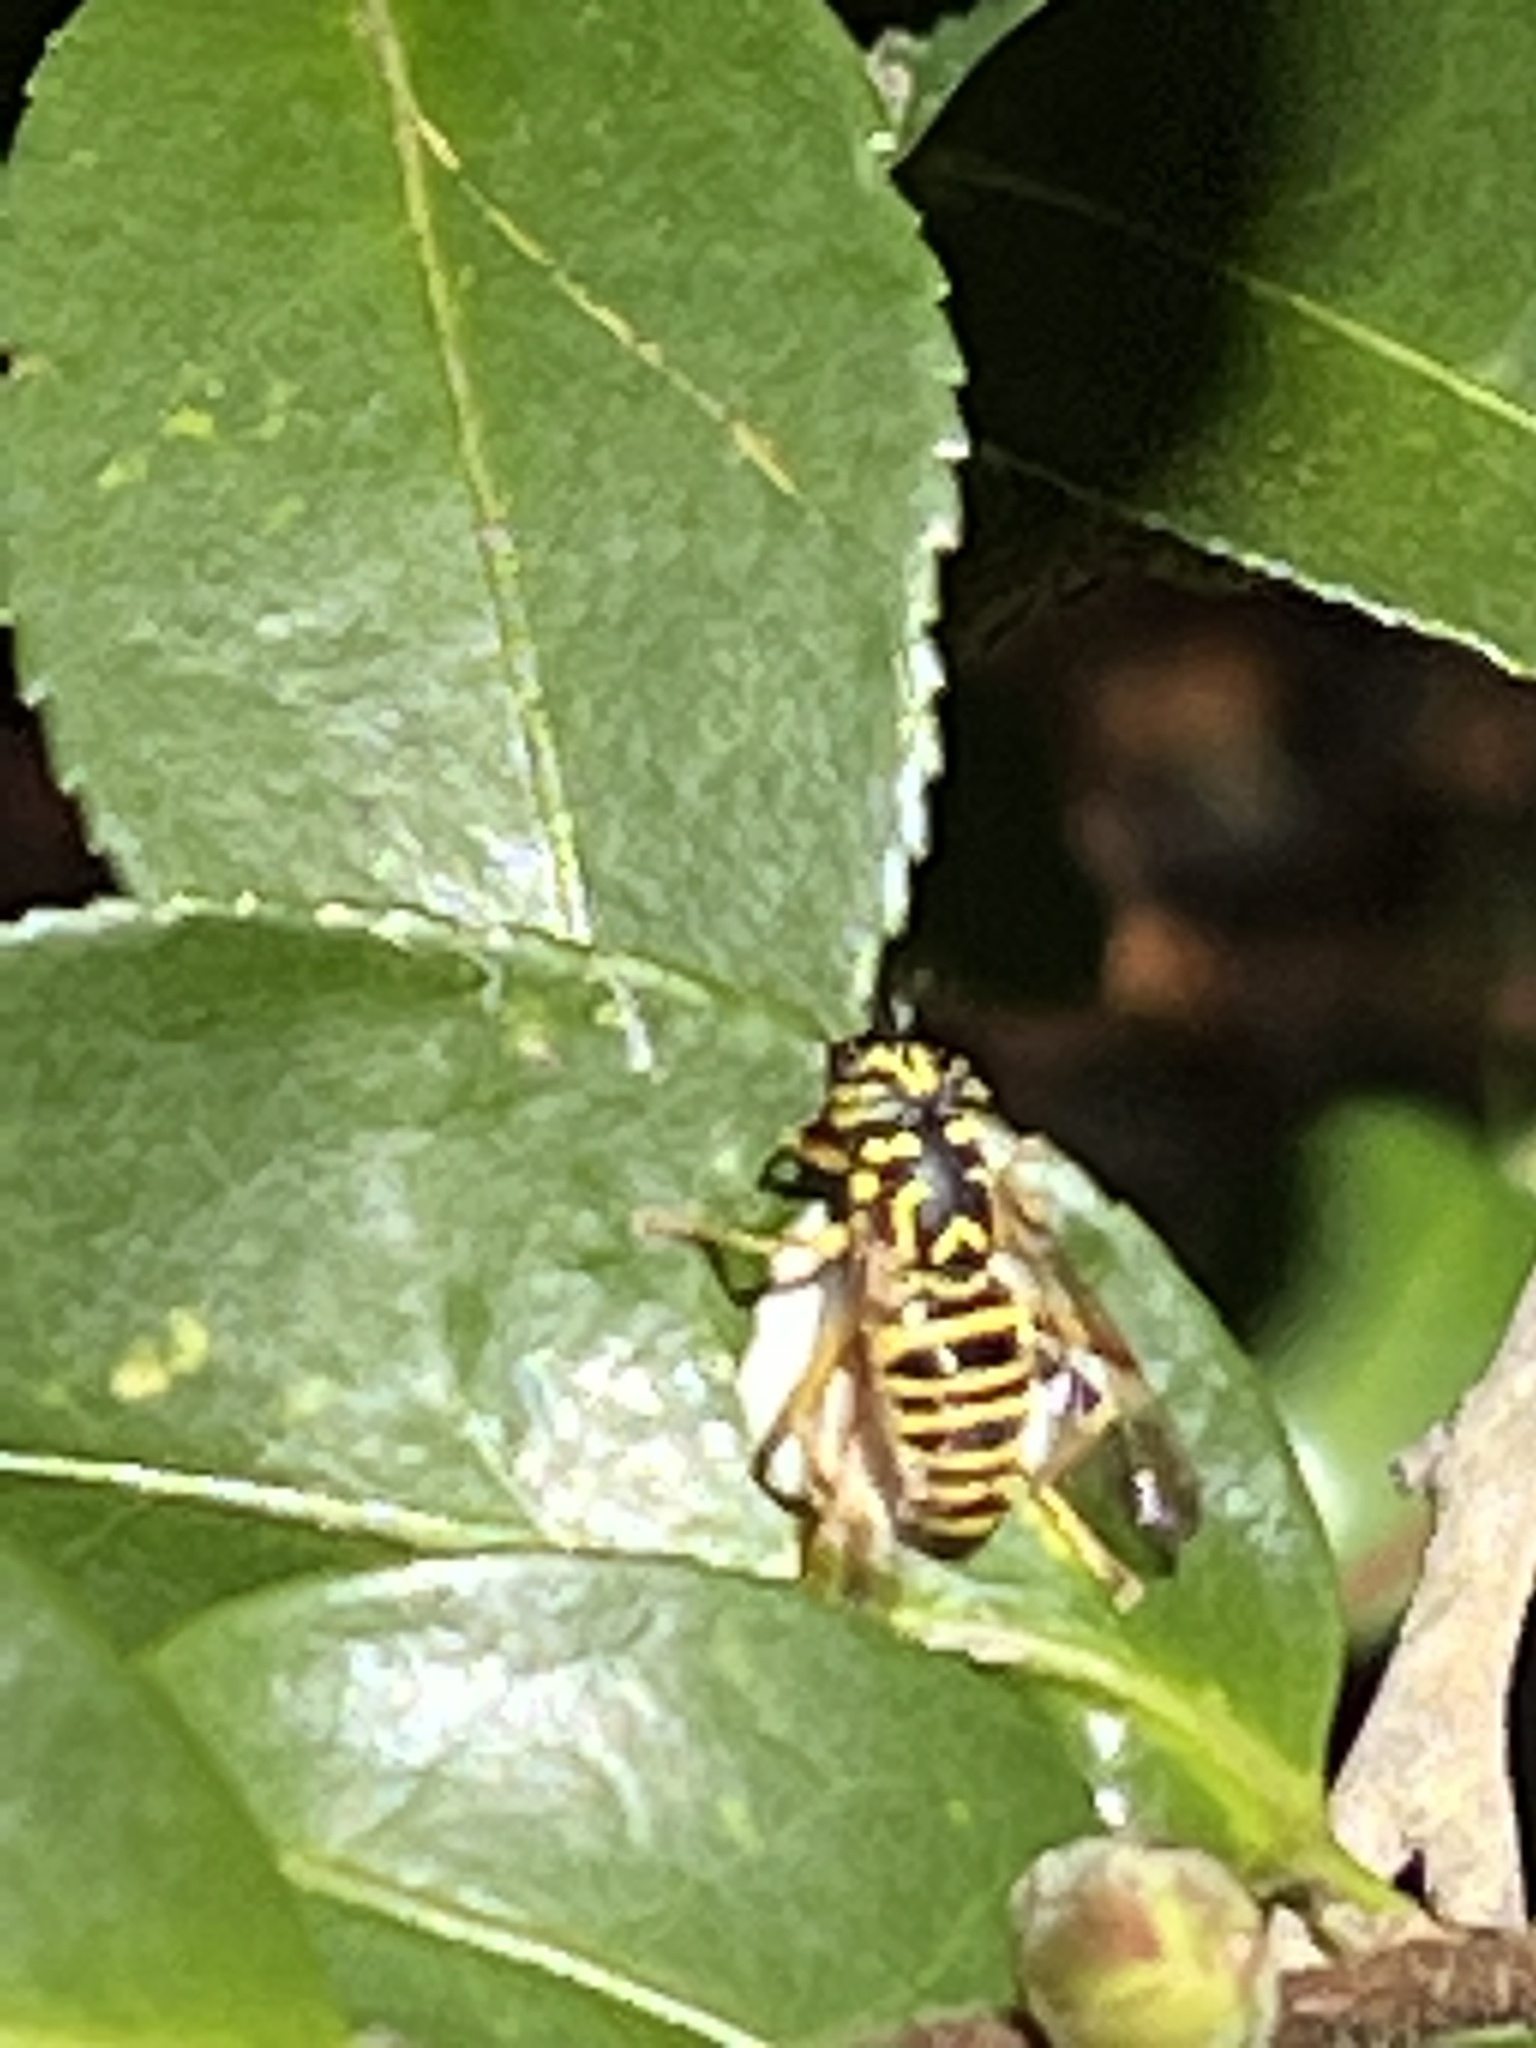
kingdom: Animalia
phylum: Arthropoda
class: Insecta
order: Diptera
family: Syrphidae
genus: Spilomyia
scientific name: Spilomyia longicornis
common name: Eastern hornet fly
